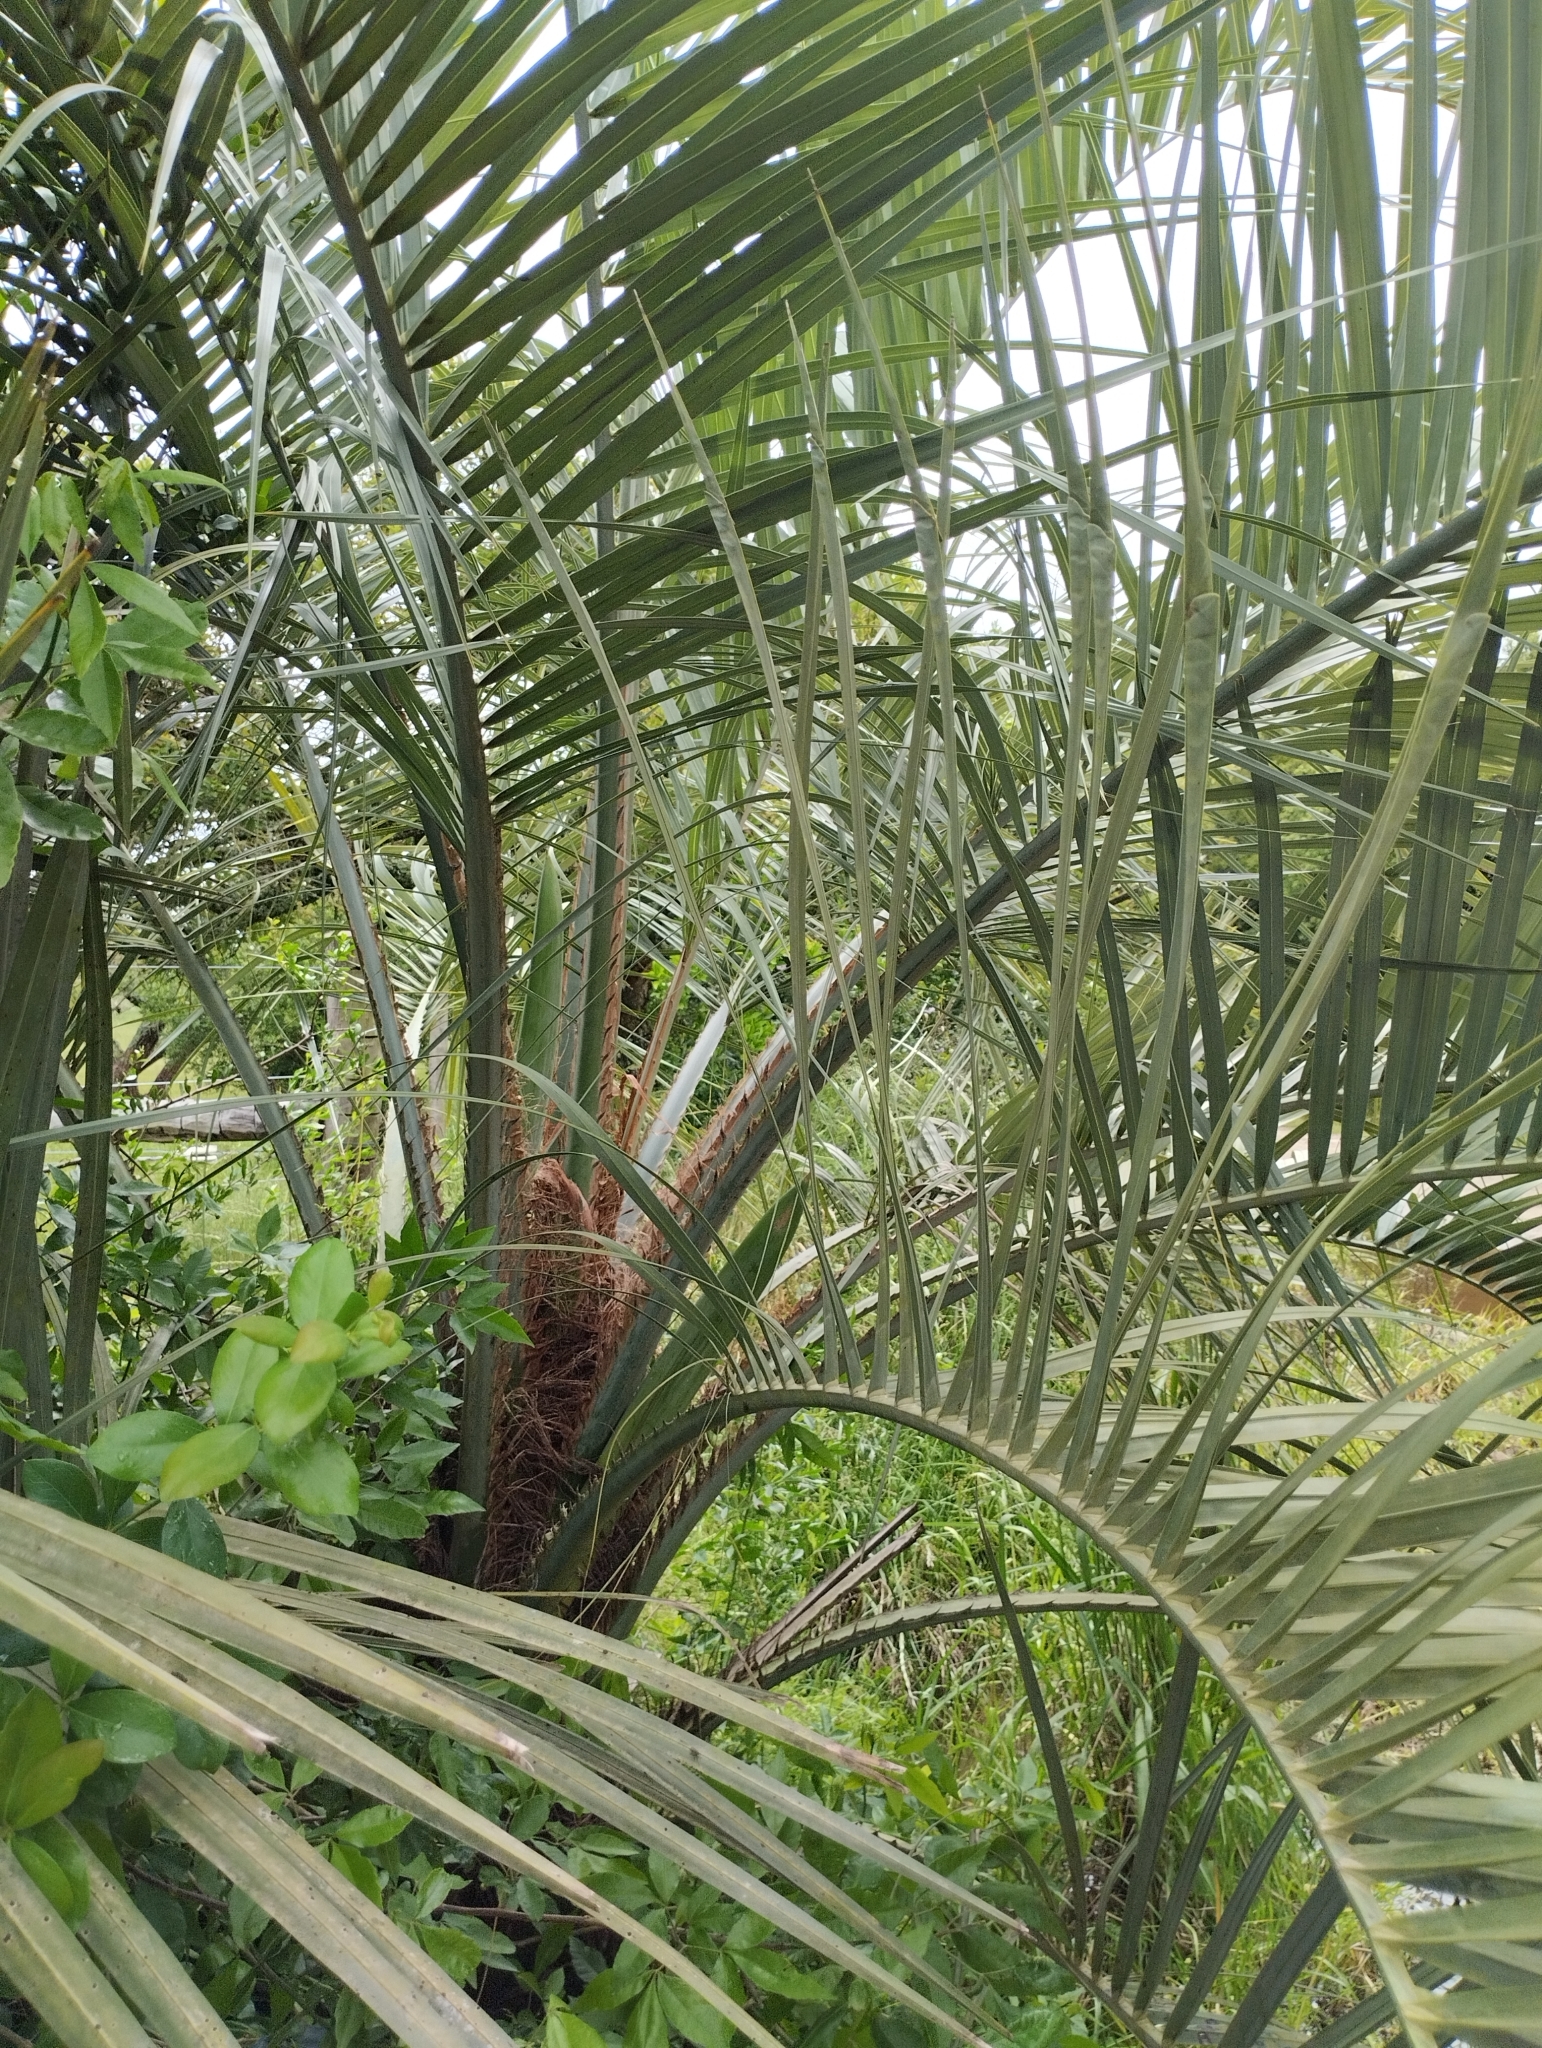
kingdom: Plantae
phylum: Tracheophyta
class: Liliopsida
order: Arecales
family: Arecaceae
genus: Butia
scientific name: Butia odorata
